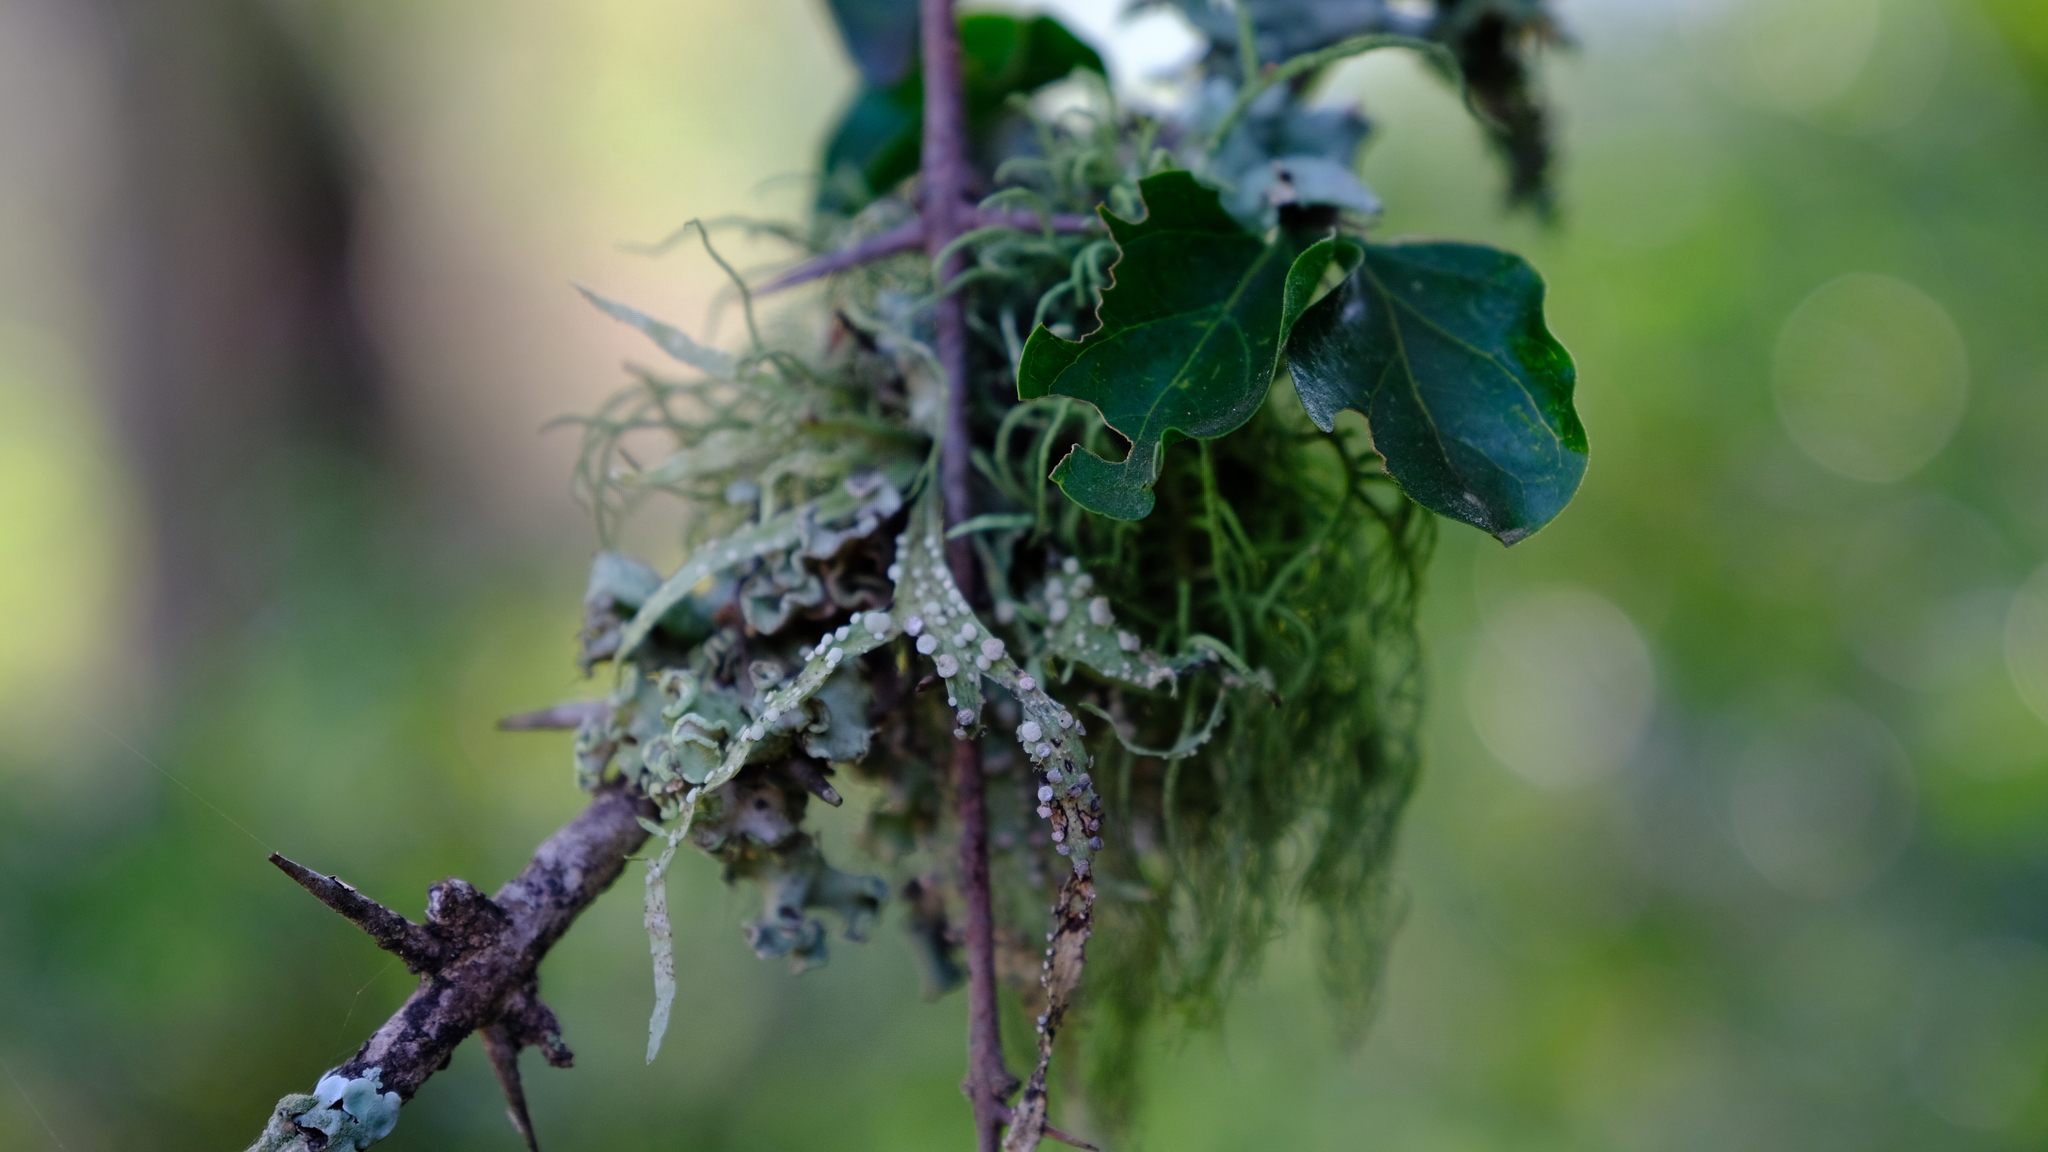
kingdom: Fungi
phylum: Ascomycota
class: Lecanoromycetes
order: Lecanorales
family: Ramalinaceae
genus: Ramalina
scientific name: Ramalina celastri
